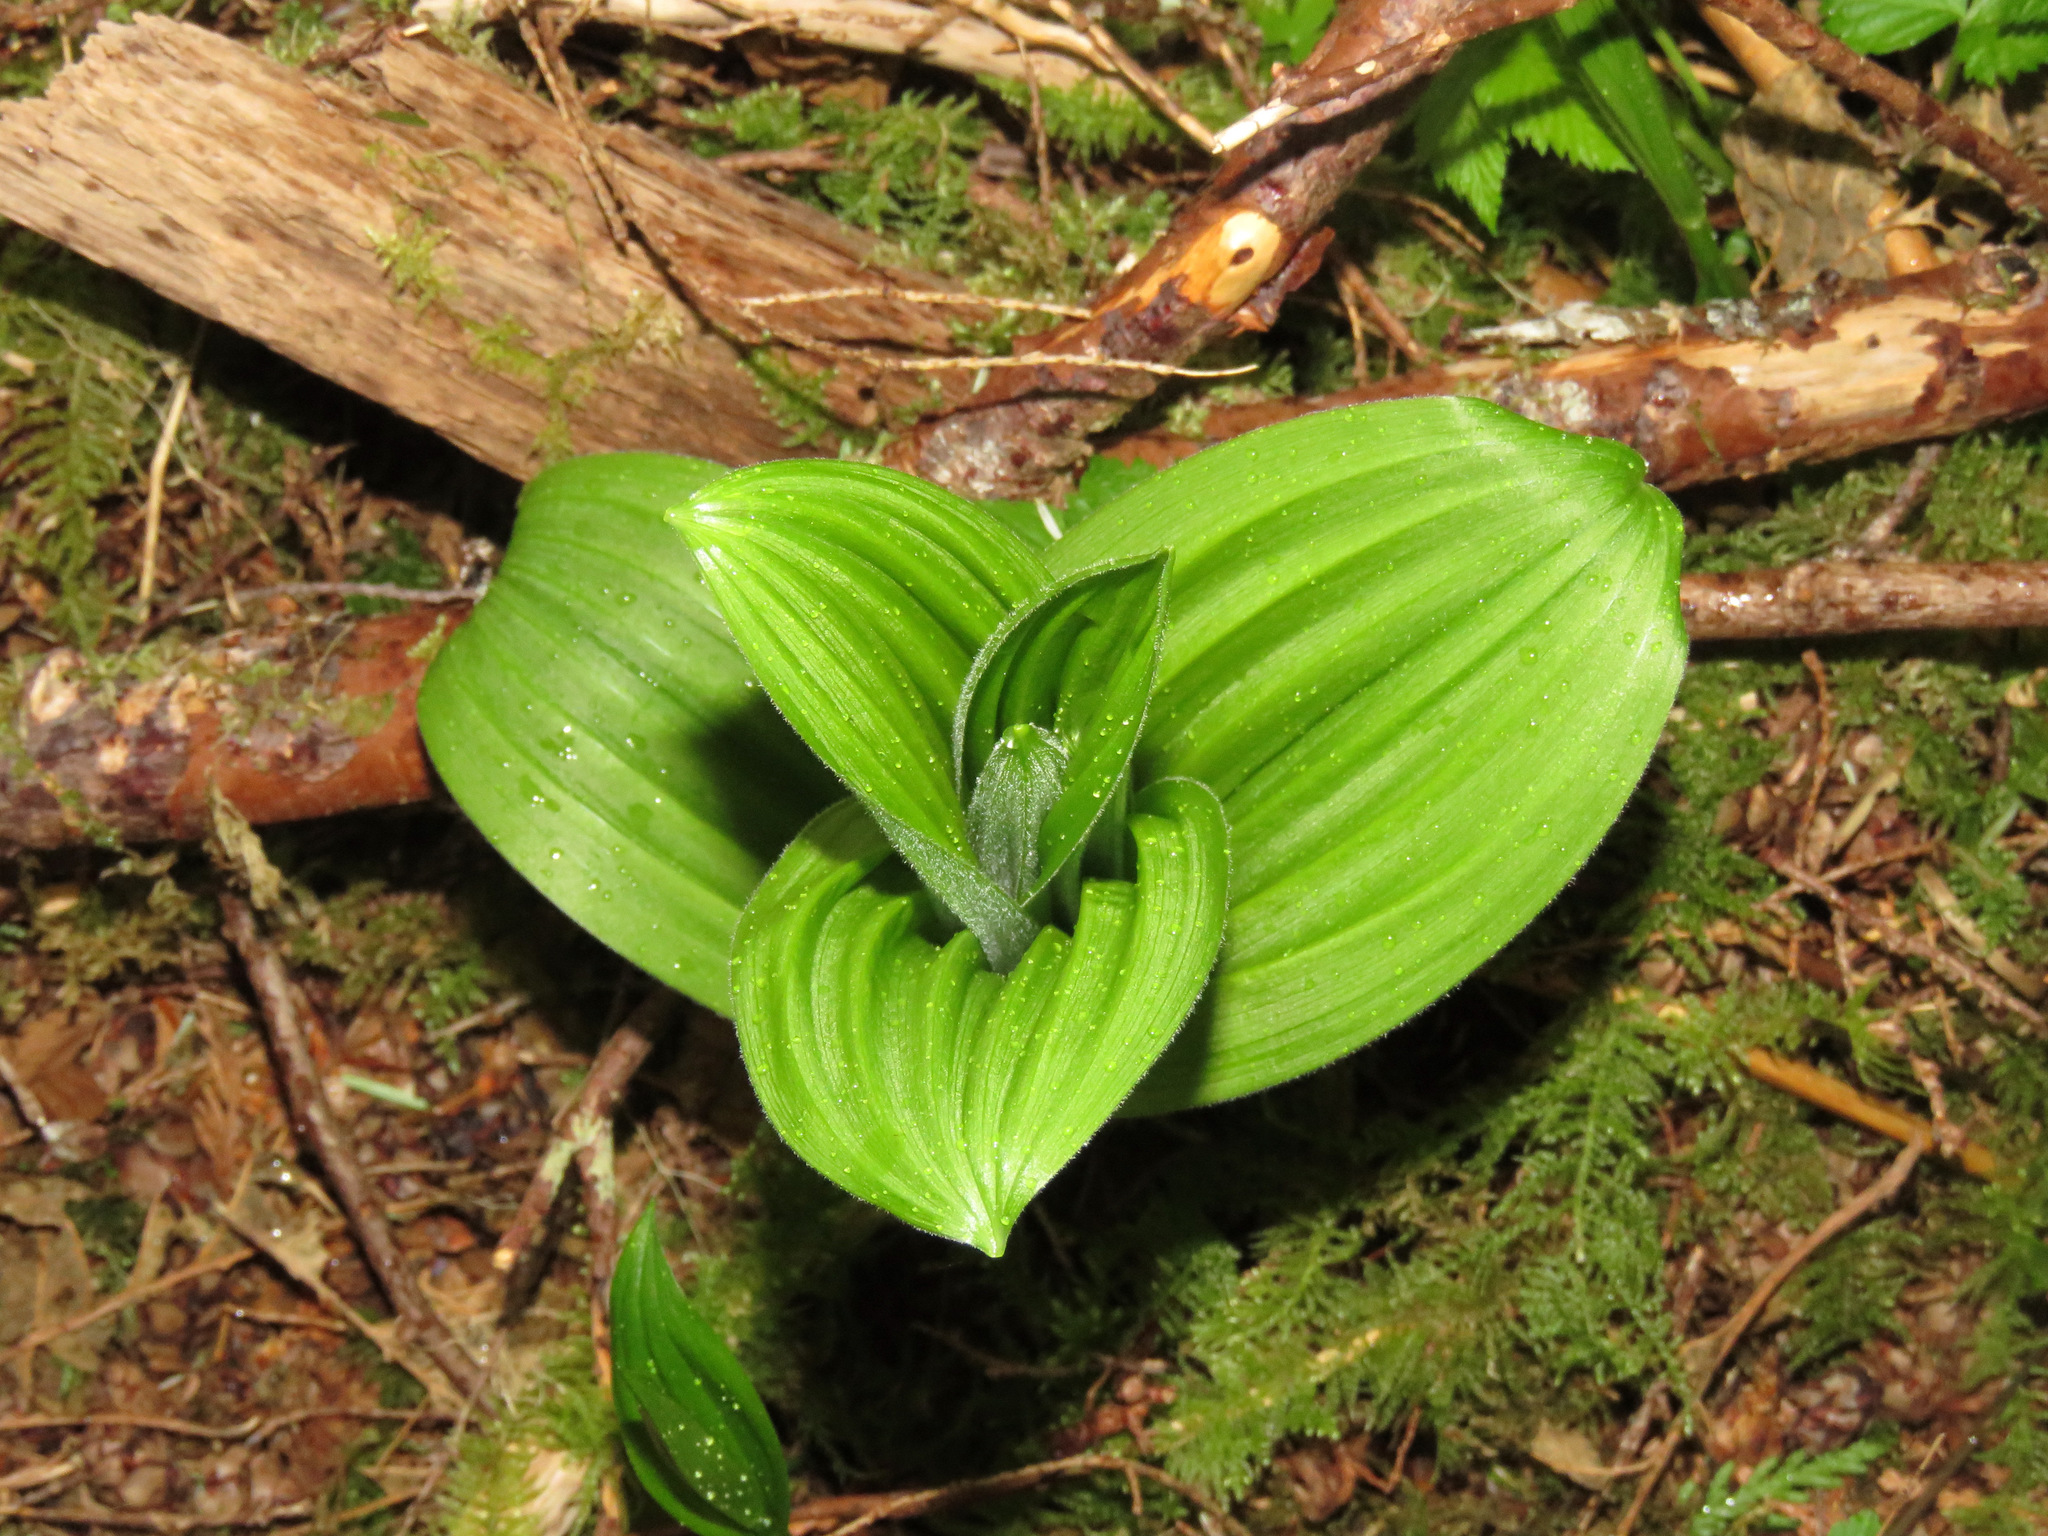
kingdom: Plantae
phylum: Tracheophyta
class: Liliopsida
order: Liliales
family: Melanthiaceae
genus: Veratrum
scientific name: Veratrum viride
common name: American false hellebore
